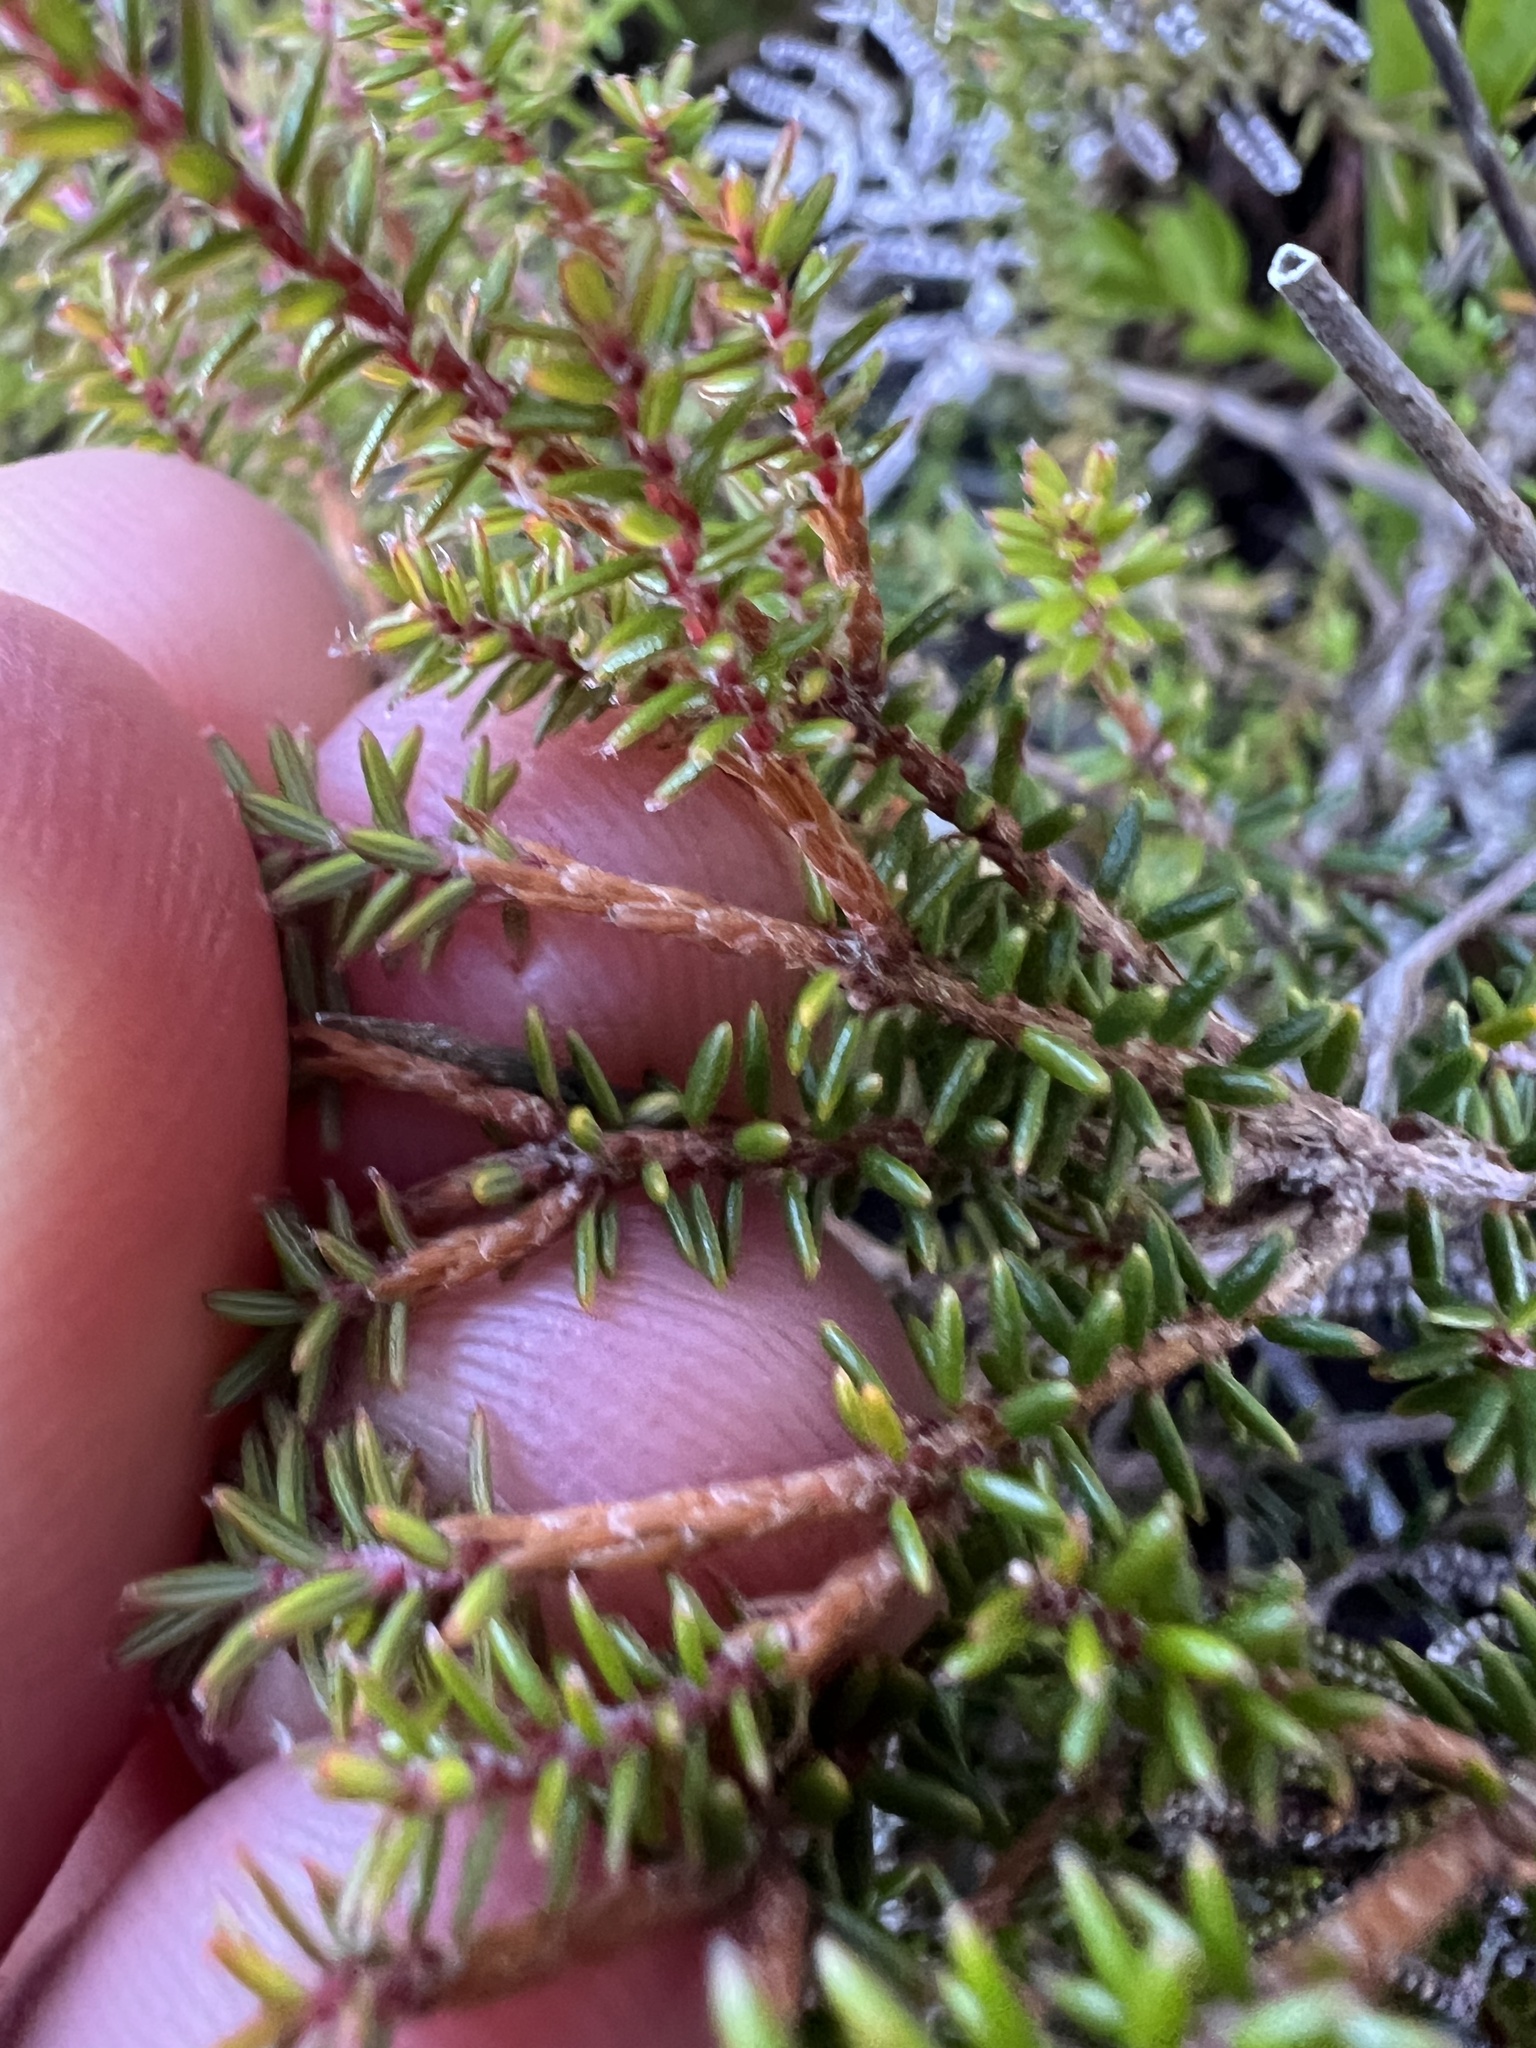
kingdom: Plantae
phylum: Tracheophyta
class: Magnoliopsida
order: Ericales
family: Ericaceae
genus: Androstoma
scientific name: Androstoma empetrifolia
